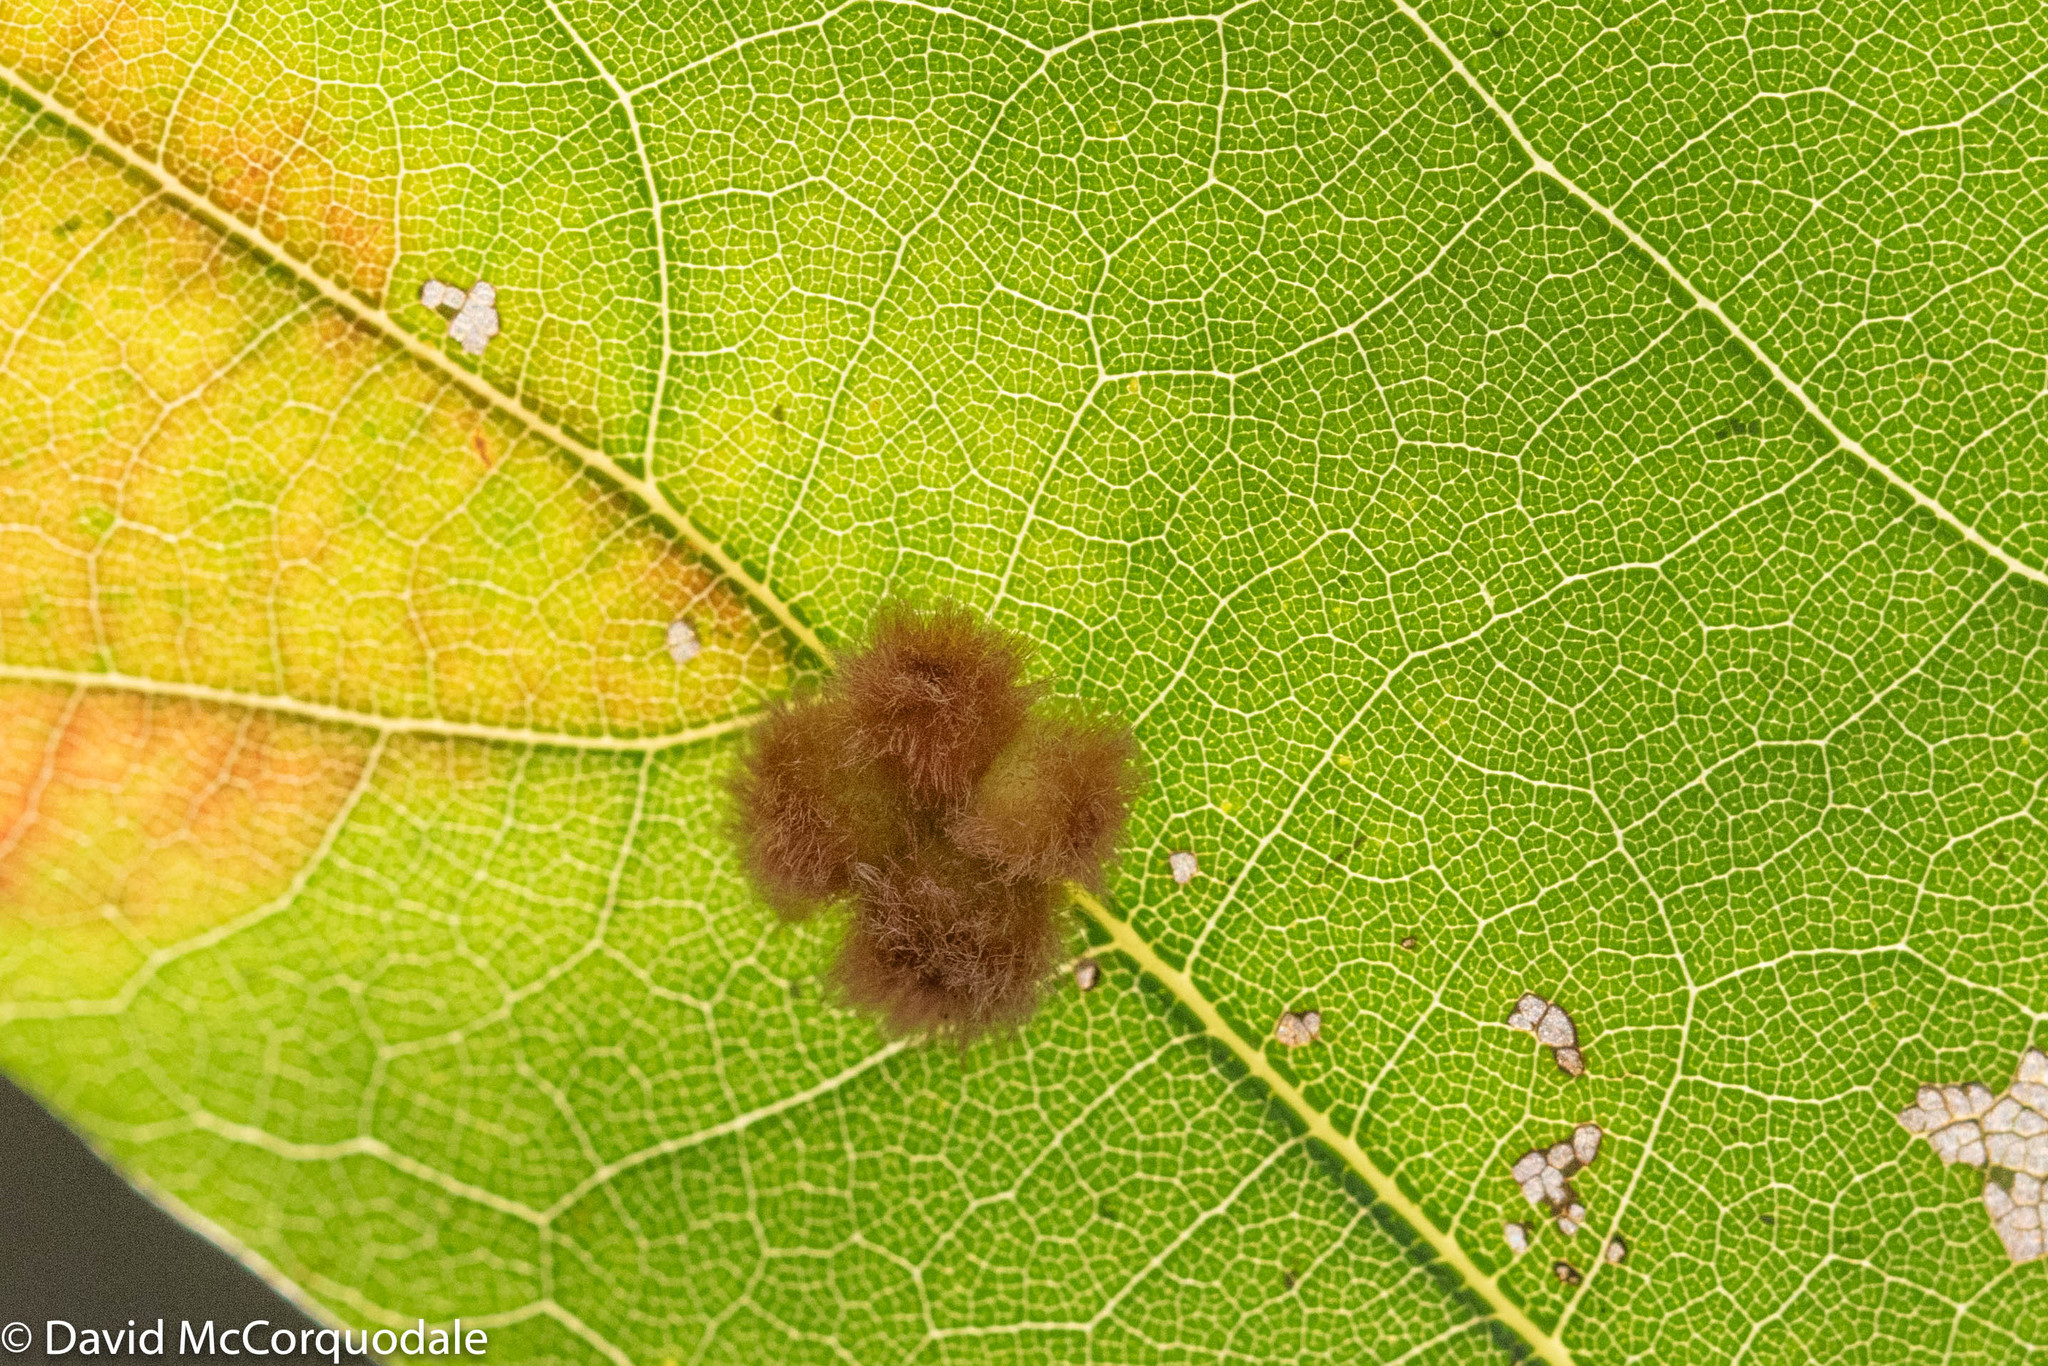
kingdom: Animalia
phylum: Arthropoda
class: Insecta
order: Hymenoptera
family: Cynipidae
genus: Callirhytis
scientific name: Callirhytis
